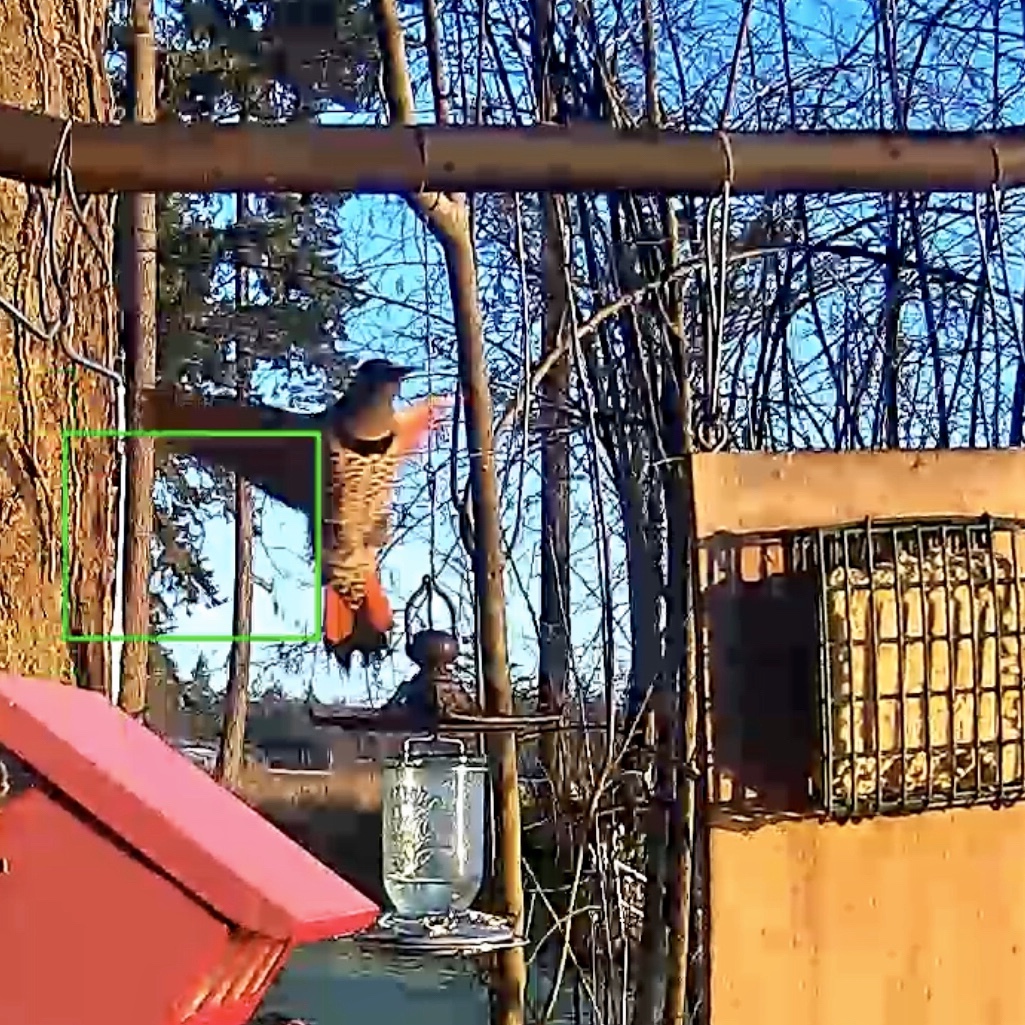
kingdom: Animalia
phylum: Chordata
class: Aves
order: Piciformes
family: Picidae
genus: Colaptes
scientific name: Colaptes auratus
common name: Northern flicker
